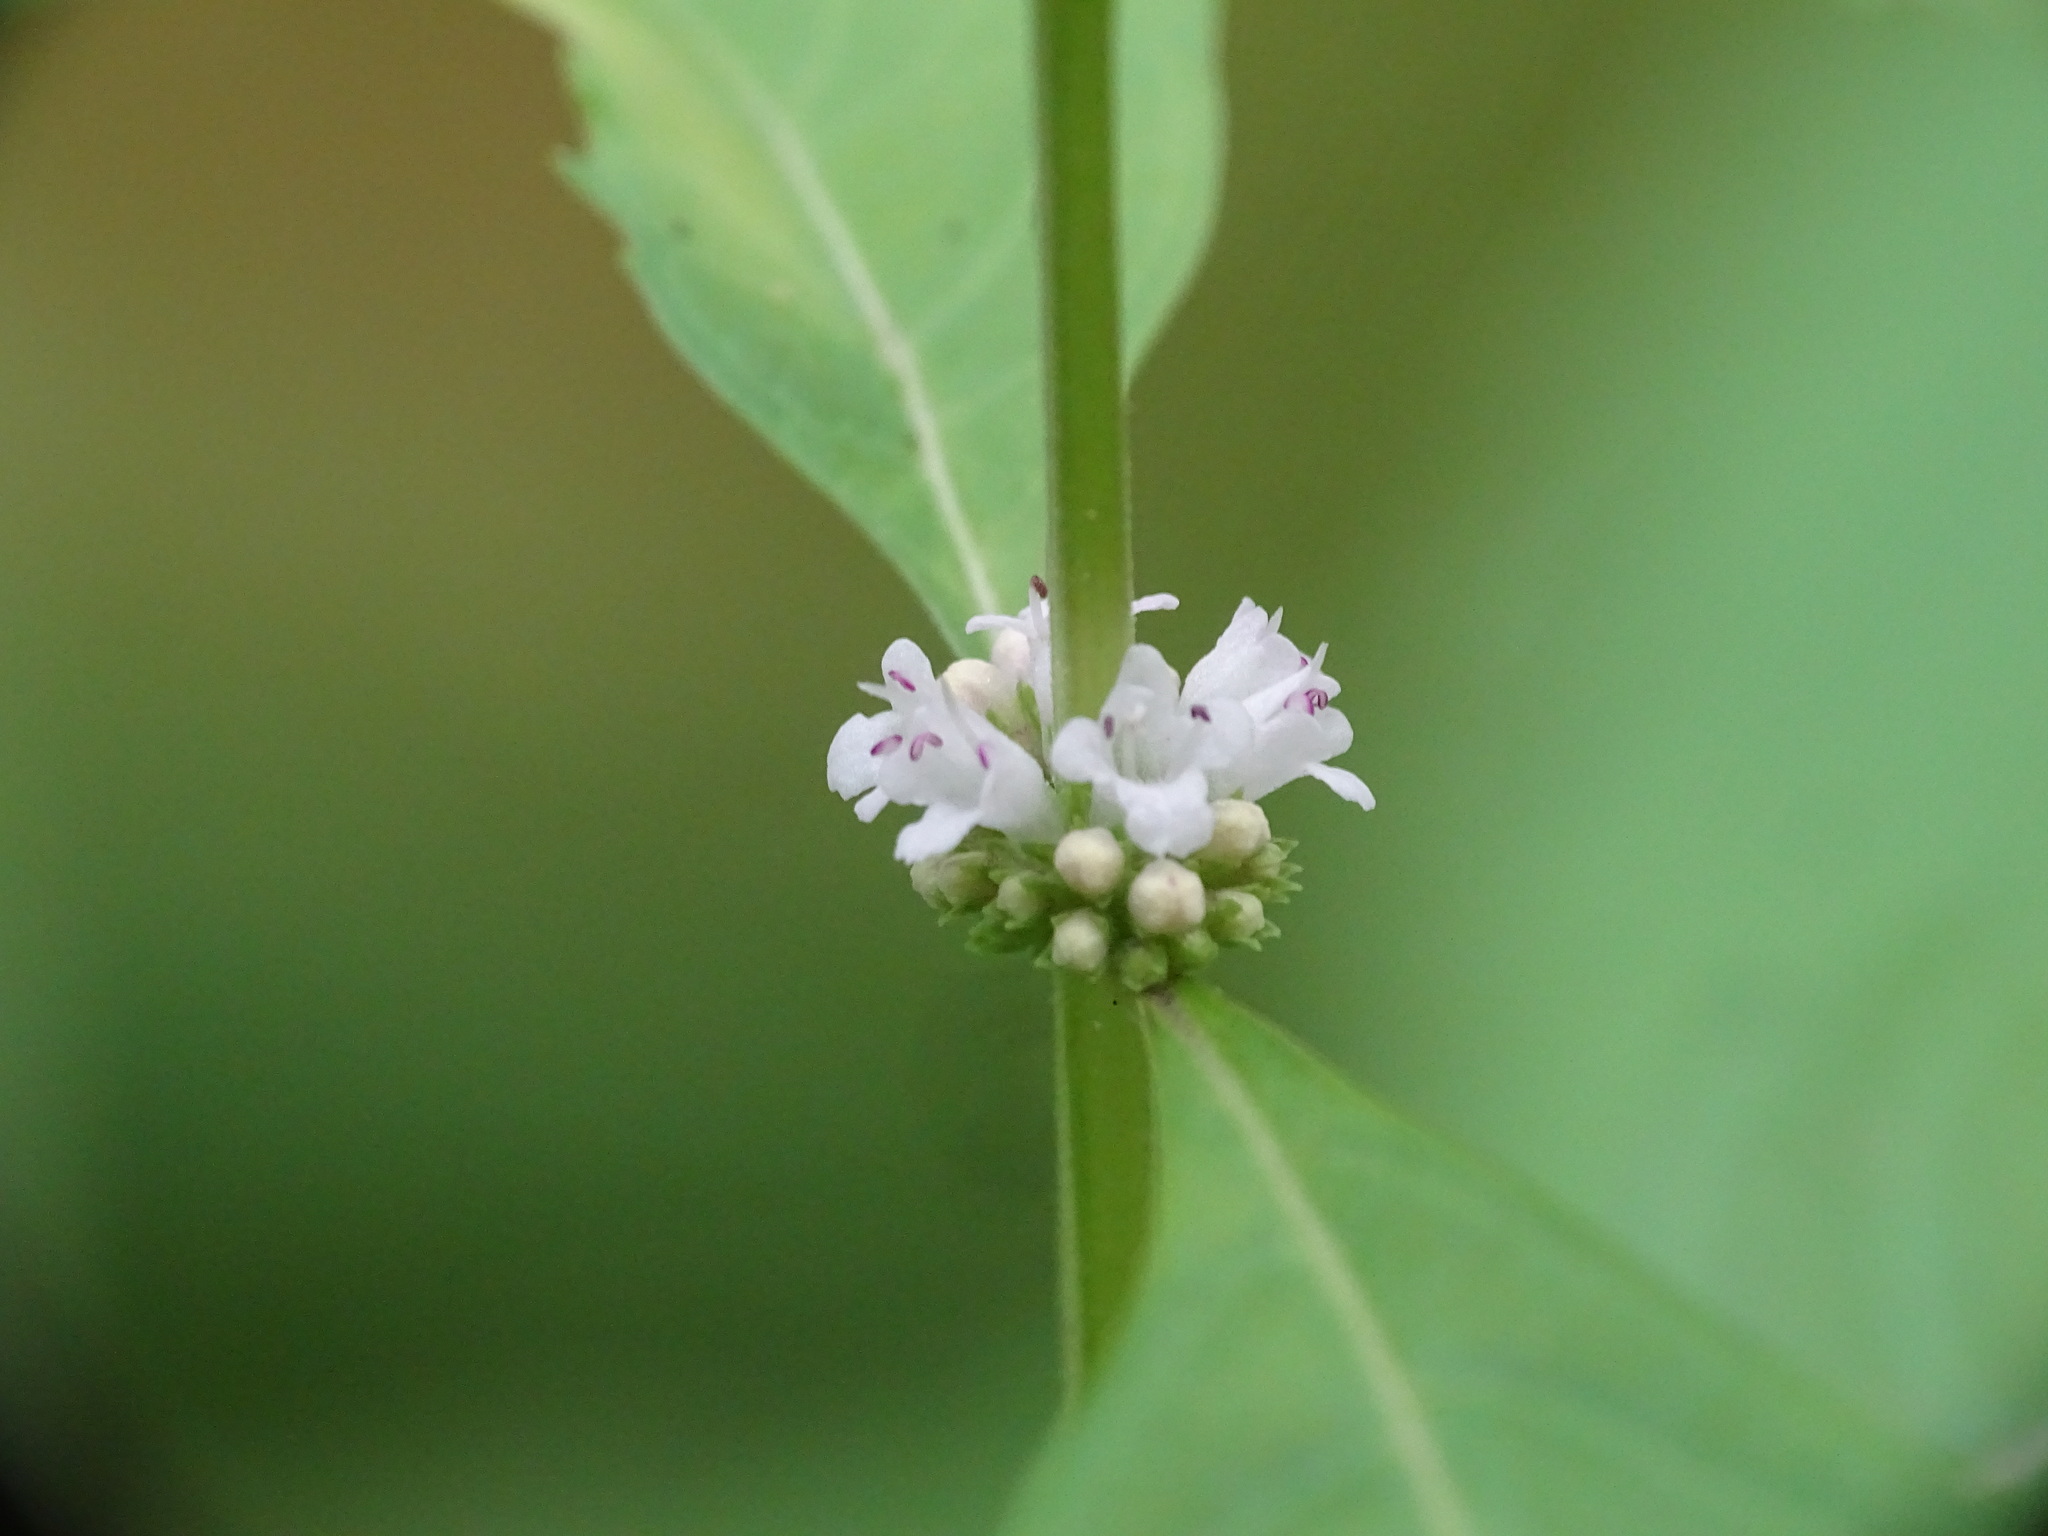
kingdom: Plantae
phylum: Tracheophyta
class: Magnoliopsida
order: Lamiales
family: Lamiaceae
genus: Lycopus
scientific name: Lycopus uniflorus
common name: Northern bugleweed
